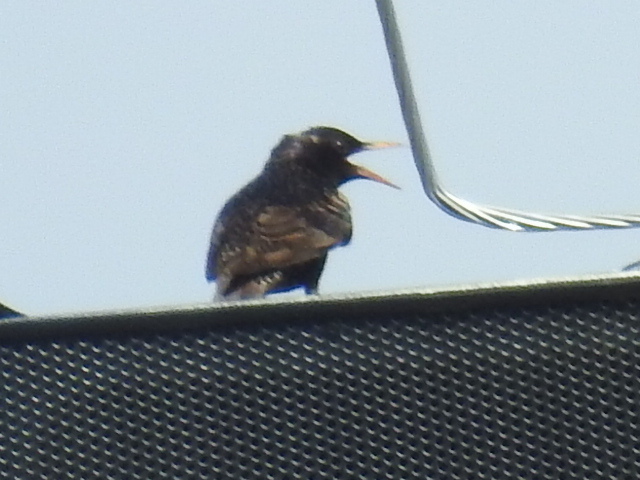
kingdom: Animalia
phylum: Chordata
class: Aves
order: Passeriformes
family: Sturnidae
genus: Sturnus
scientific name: Sturnus vulgaris
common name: Common starling
